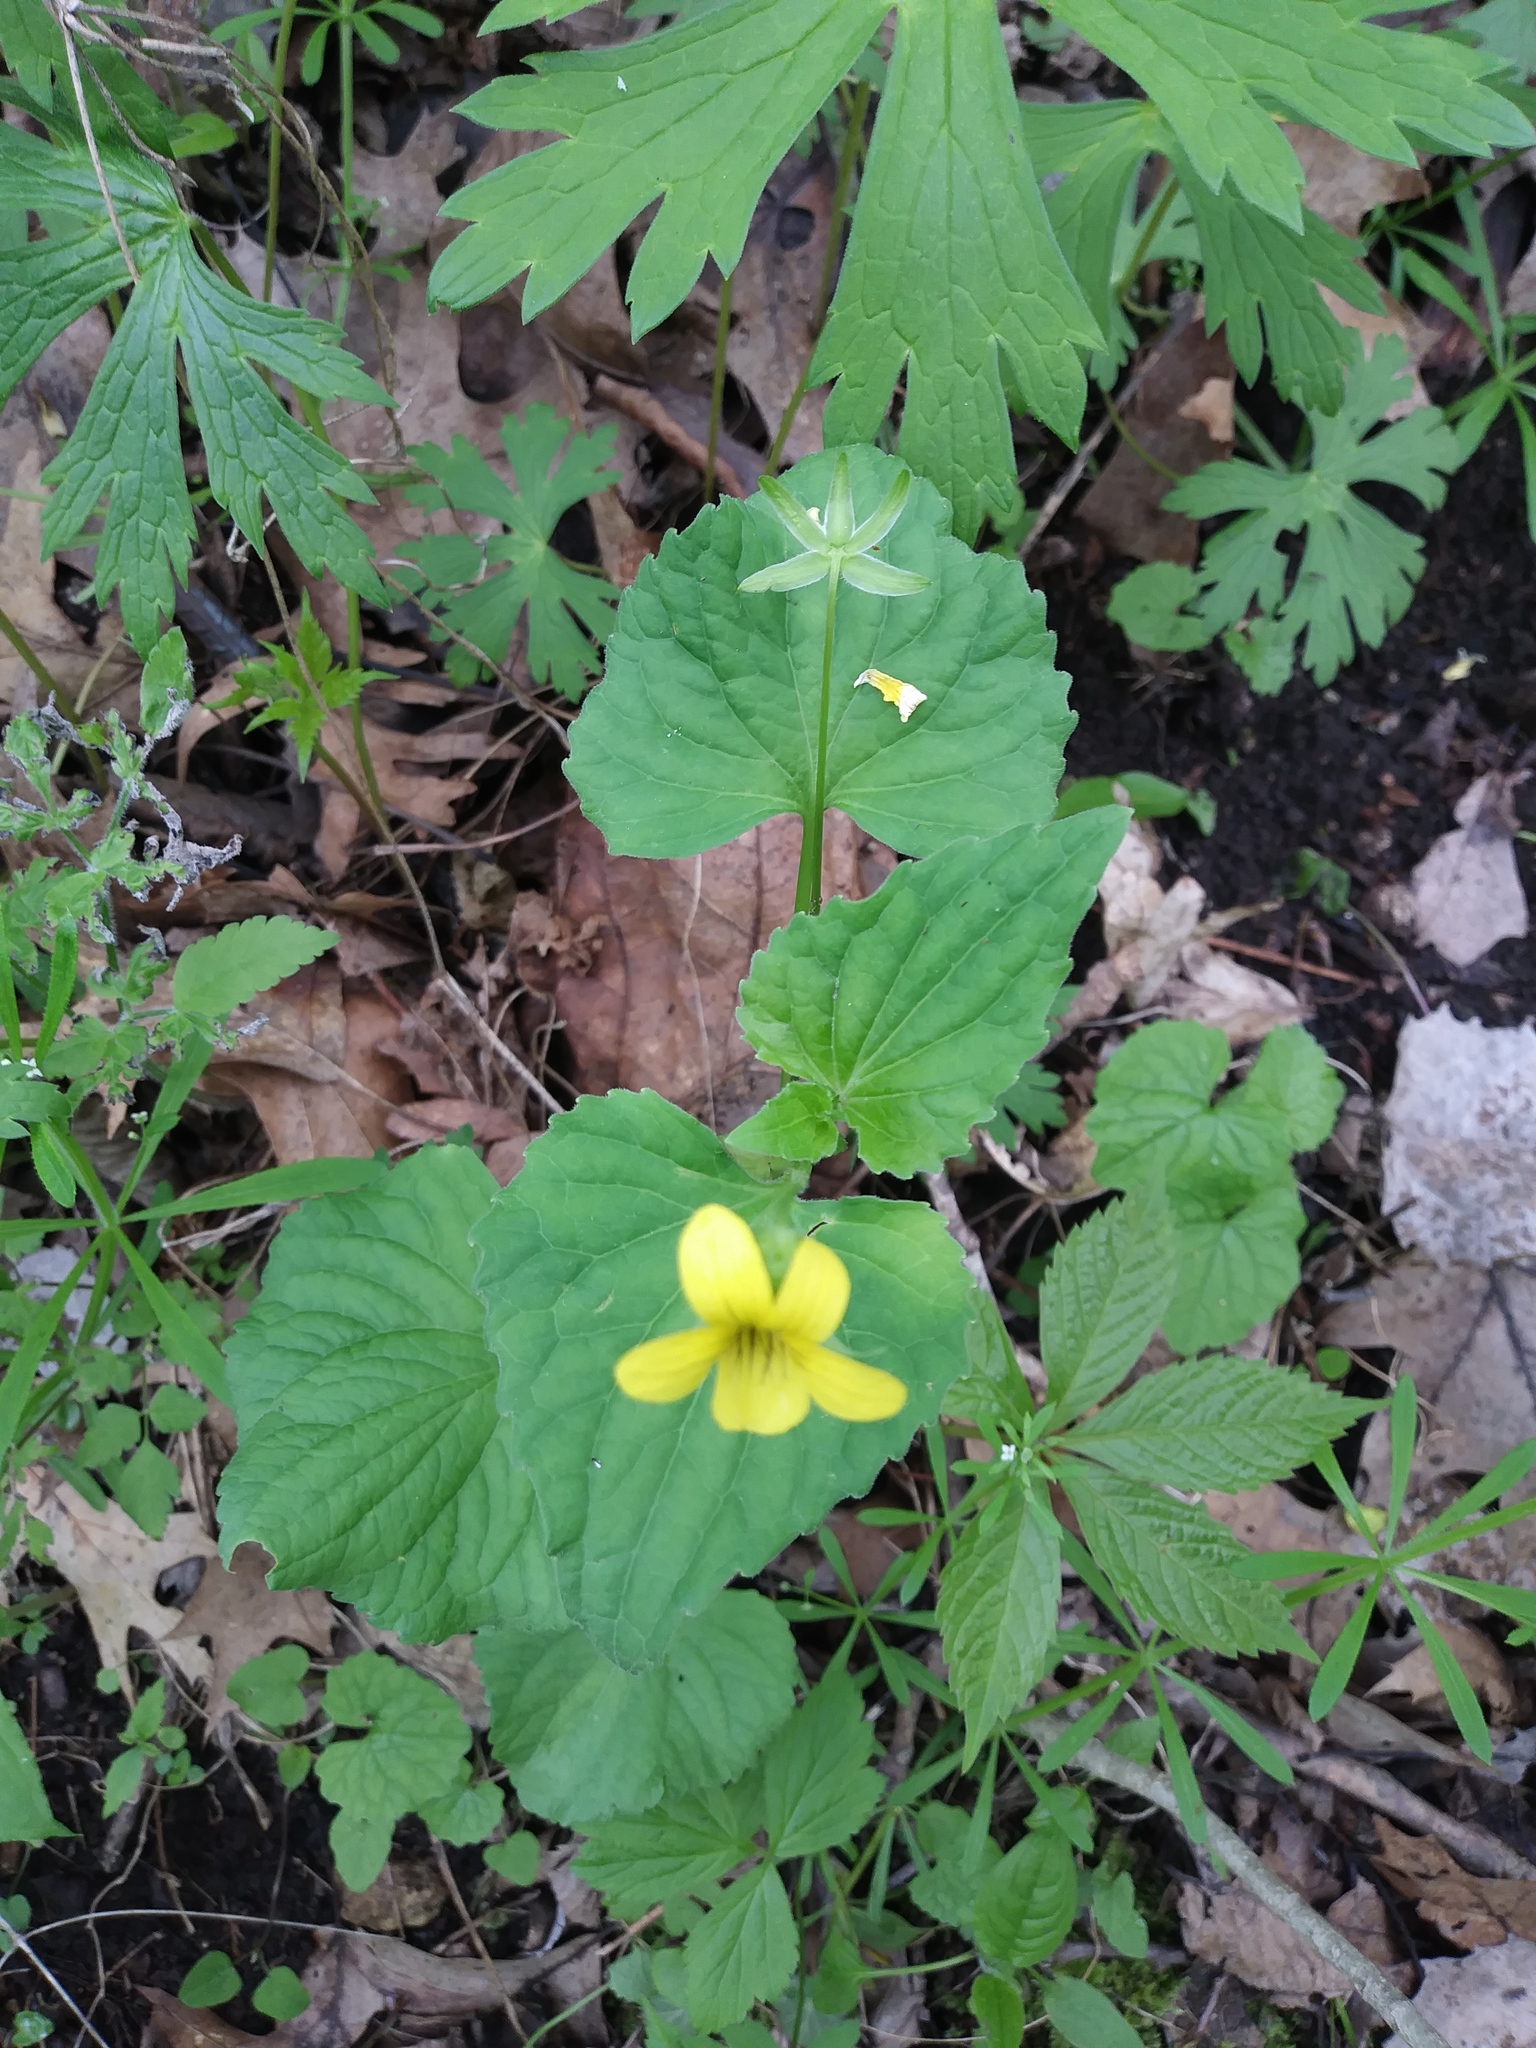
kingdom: Plantae
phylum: Tracheophyta
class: Magnoliopsida
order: Malpighiales
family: Violaceae
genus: Viola
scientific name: Viola eriocarpa
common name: Smooth yellow violet
